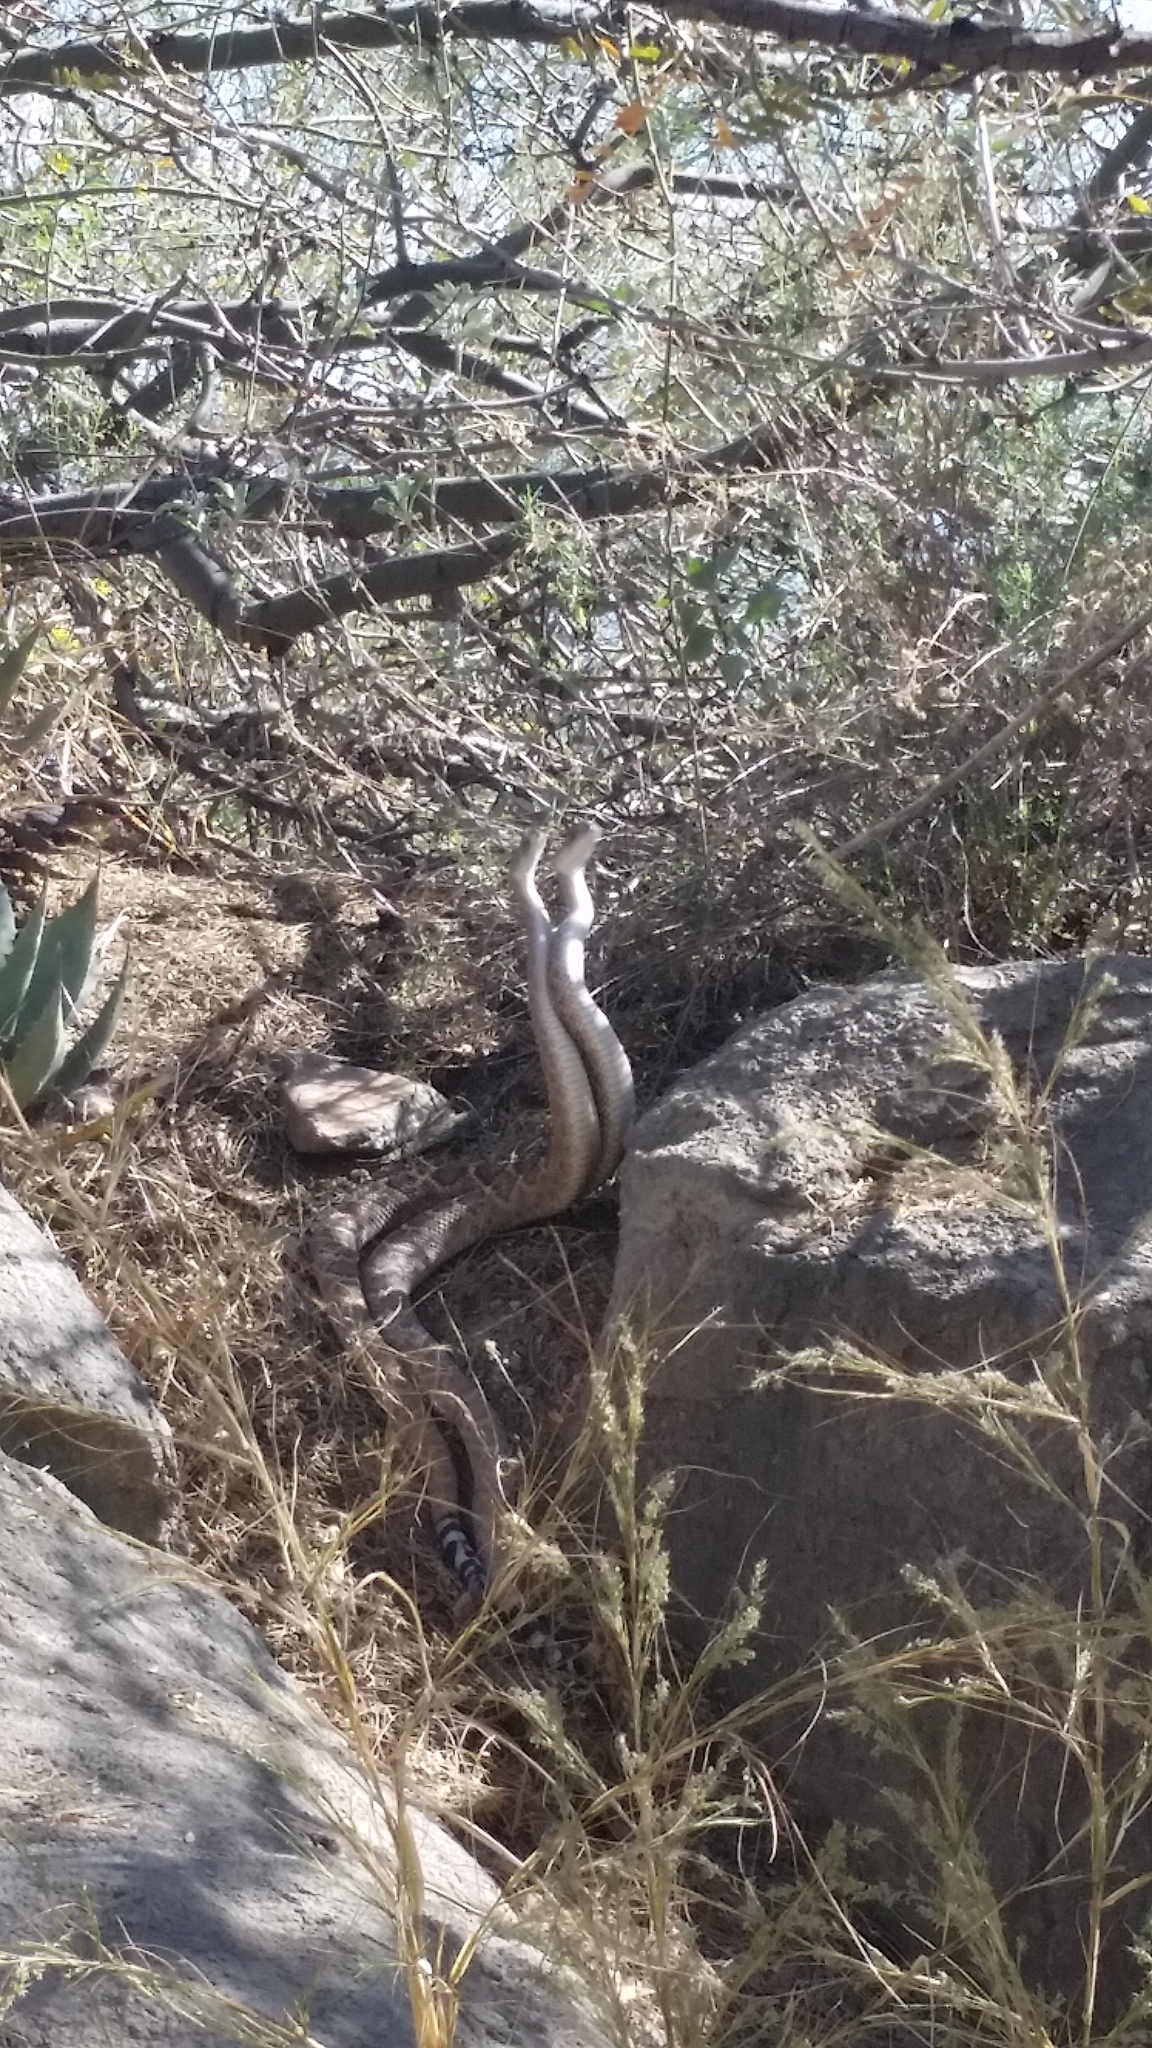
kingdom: Animalia
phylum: Chordata
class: Squamata
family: Viperidae
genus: Crotalus
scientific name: Crotalus atrox
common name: Western diamond-backed rattlesnake
